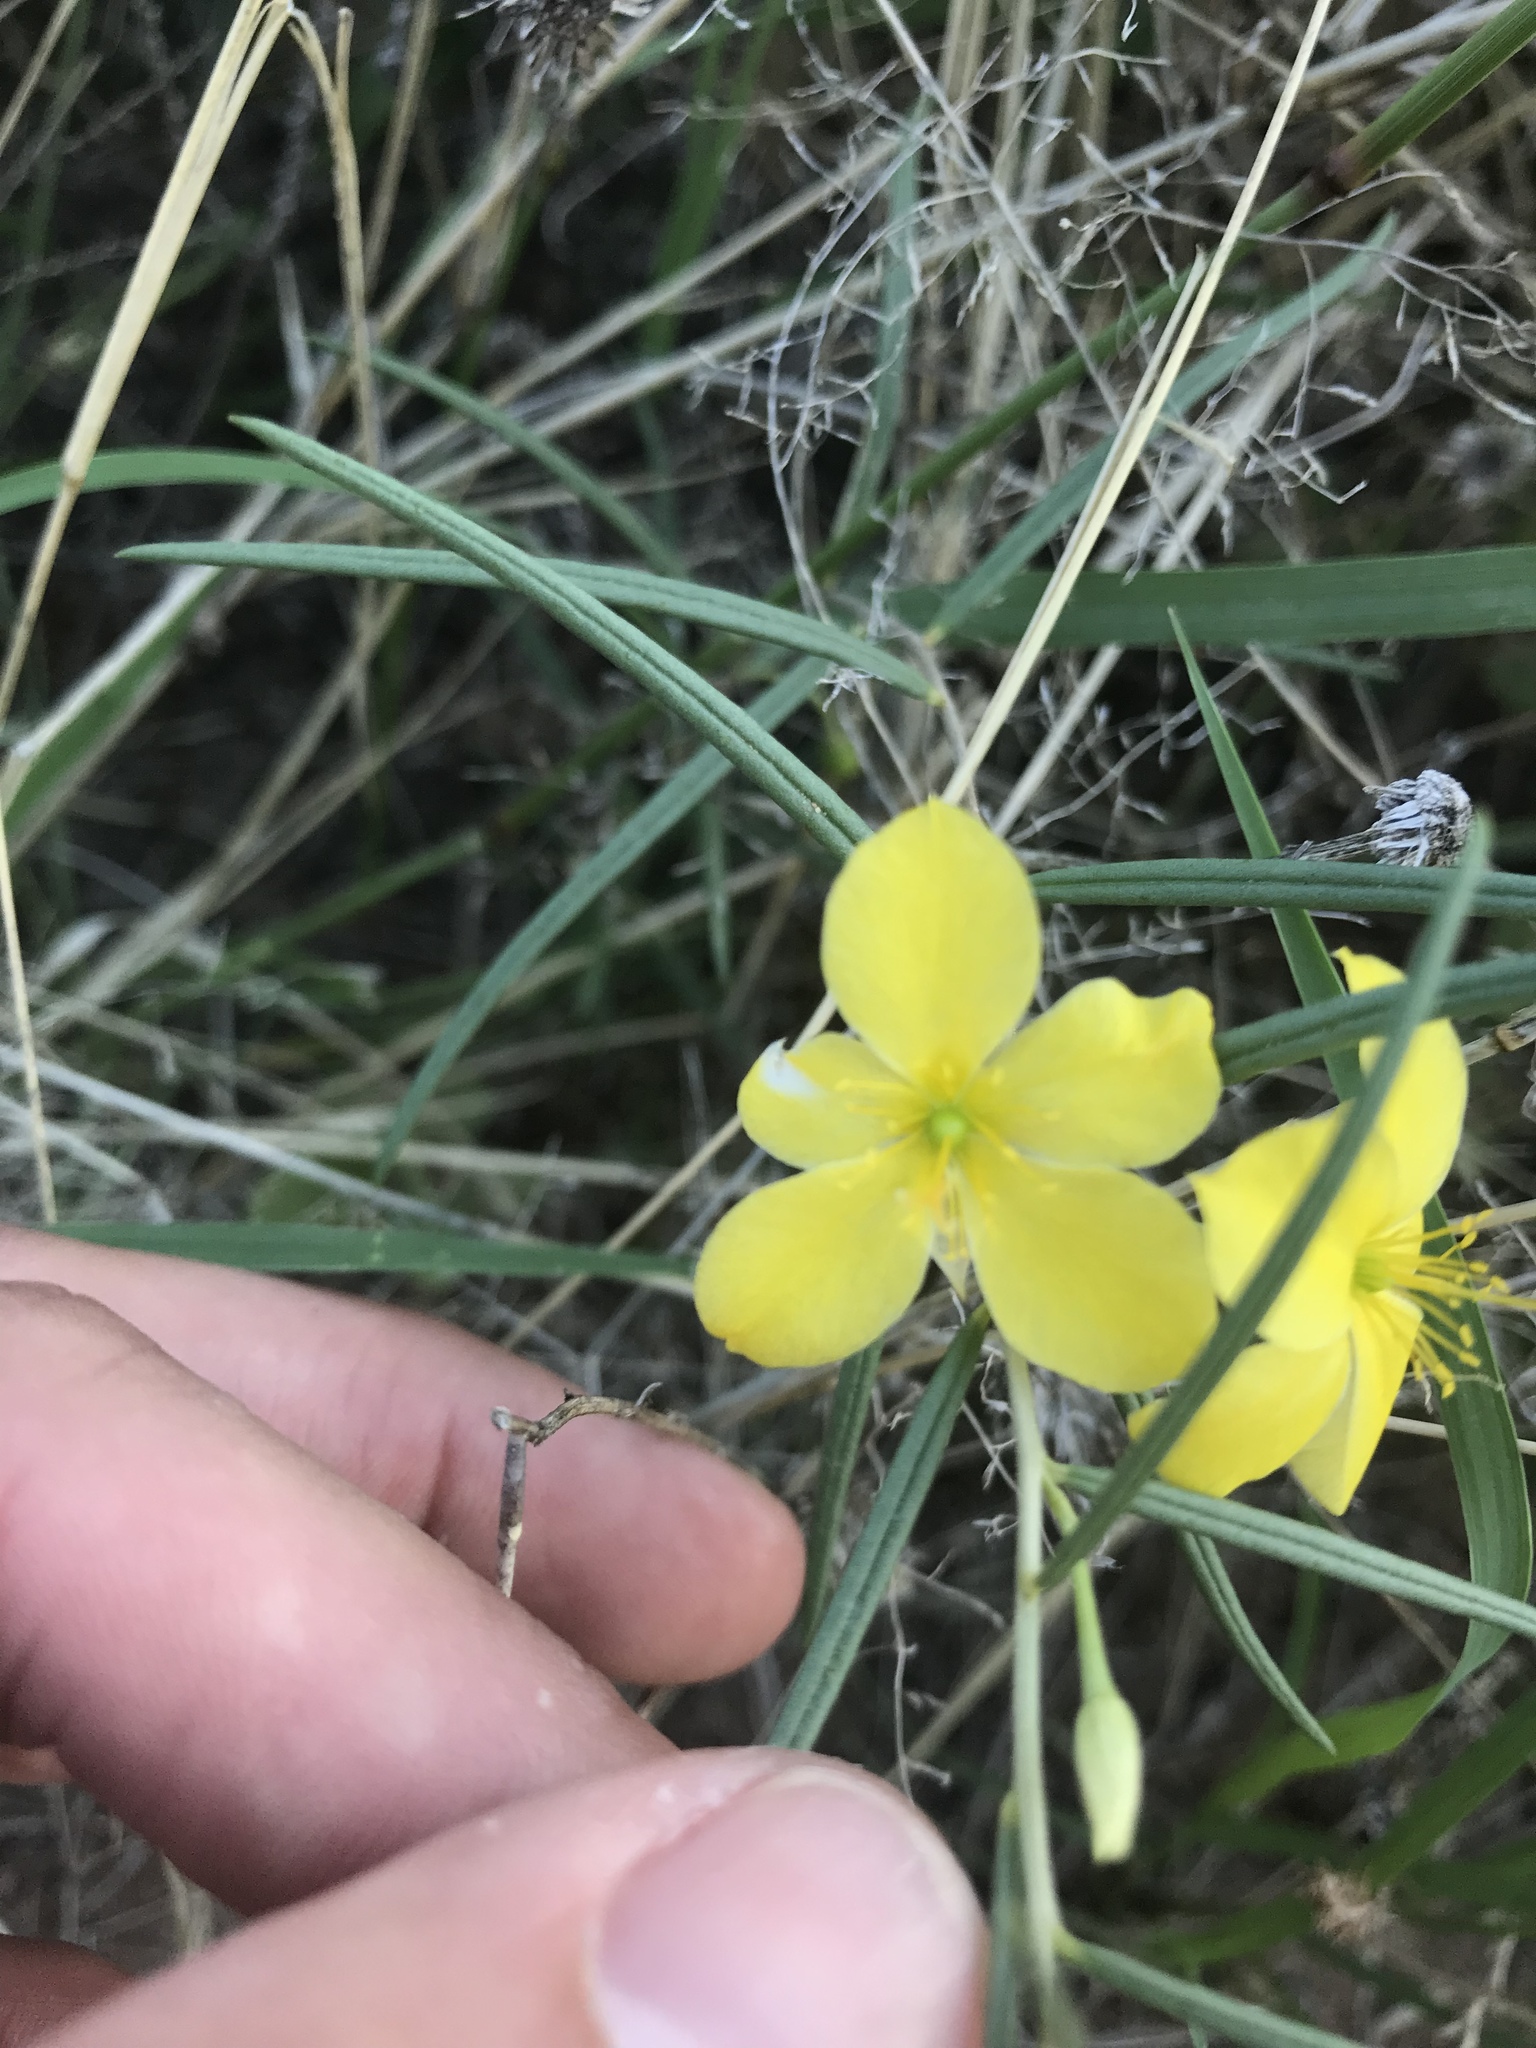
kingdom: Plantae
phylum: Tracheophyta
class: Magnoliopsida
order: Caryophyllales
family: Talinaceae
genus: Talinum
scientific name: Talinum polygaloides
